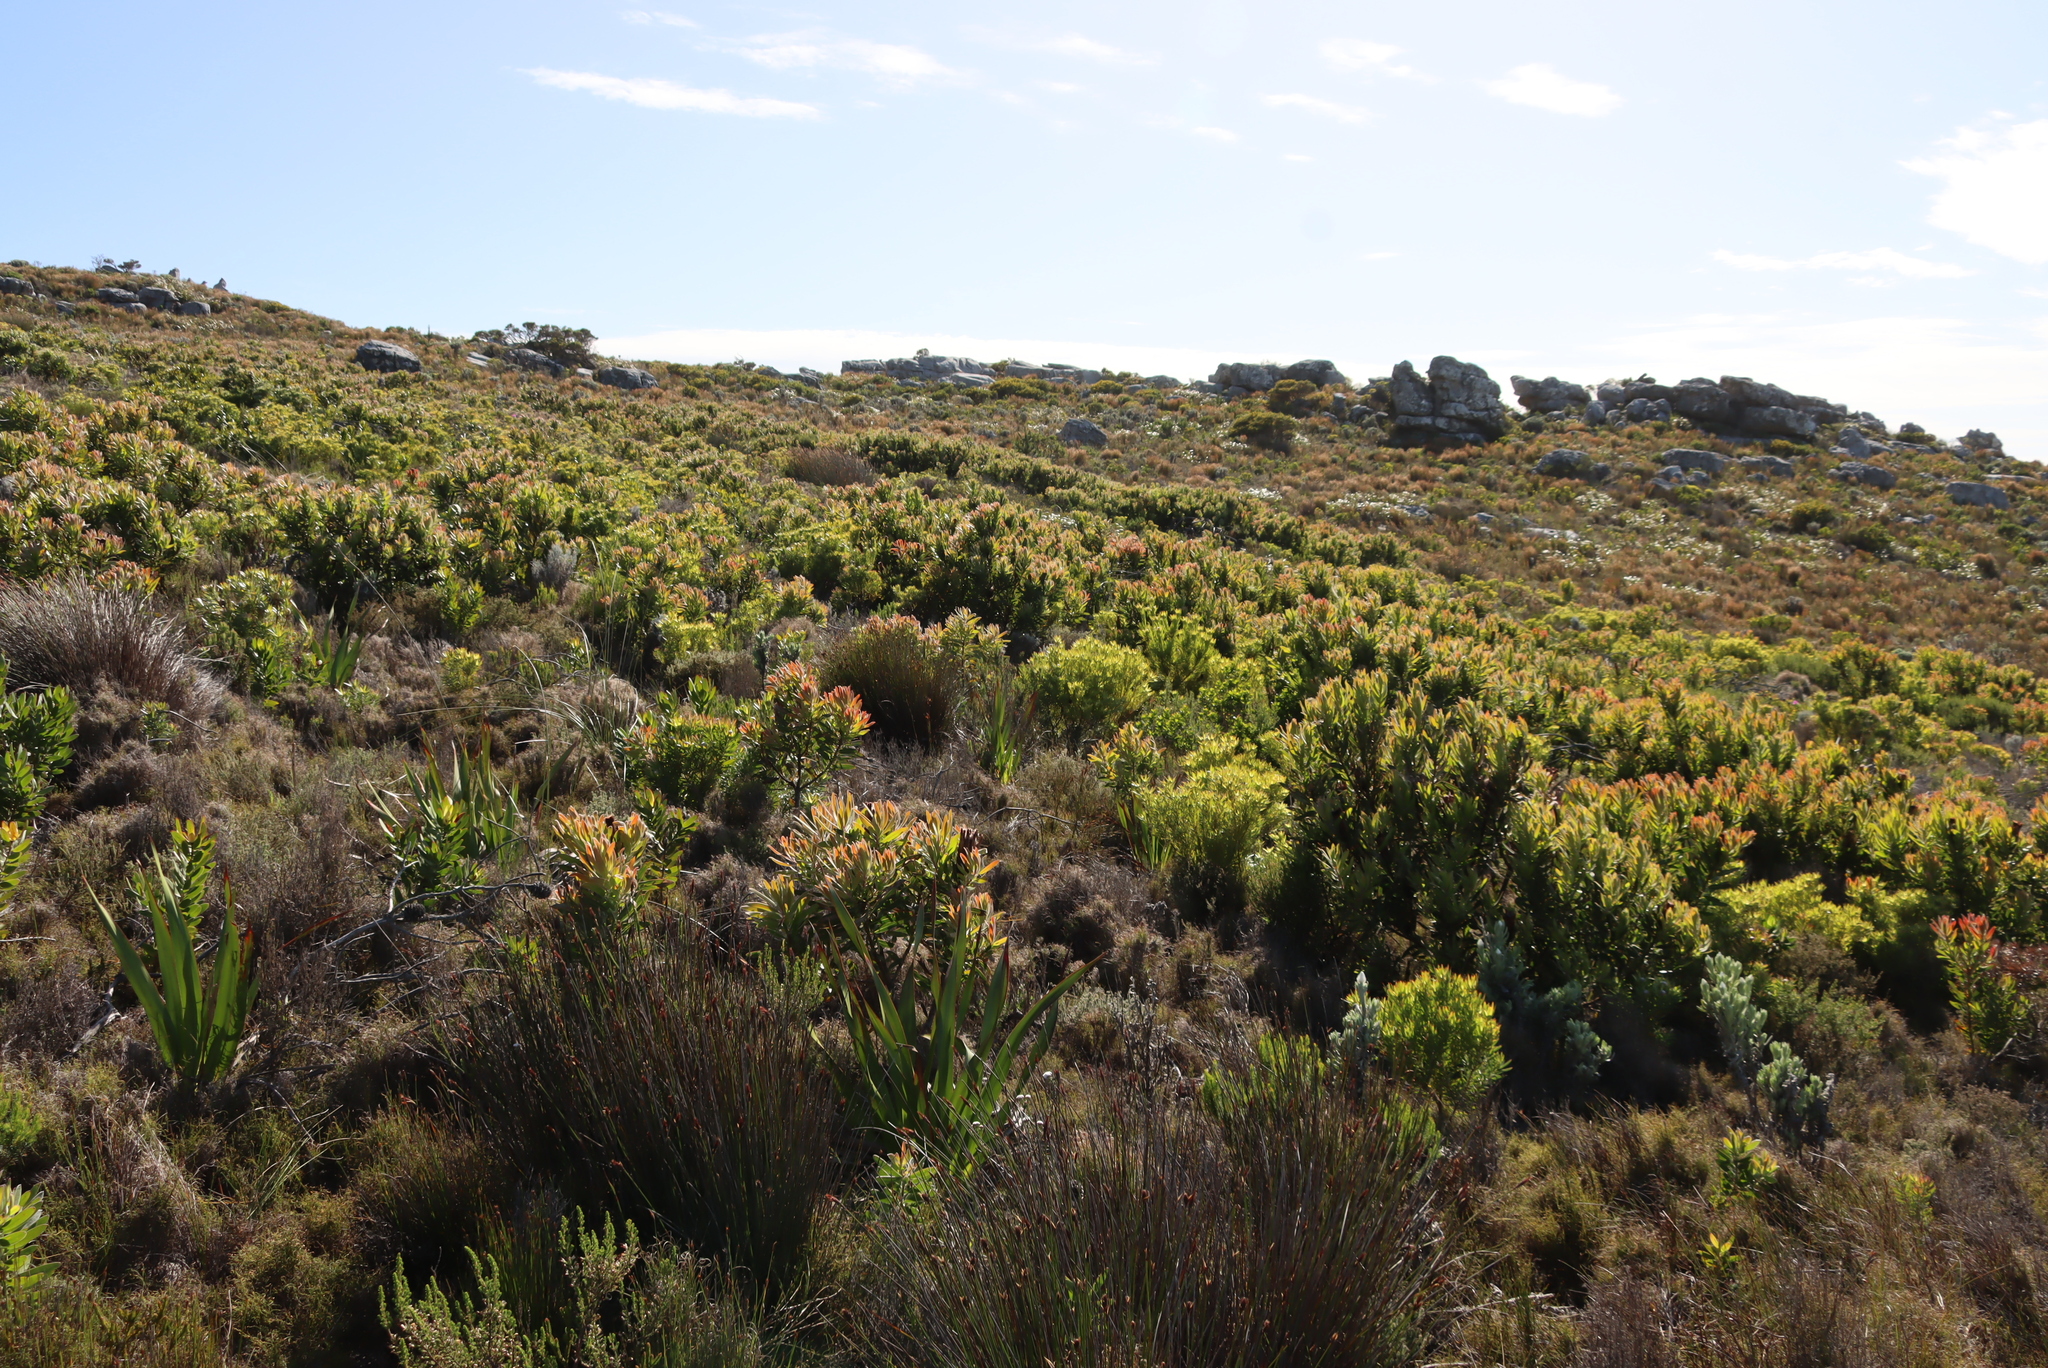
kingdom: Plantae
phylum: Tracheophyta
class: Magnoliopsida
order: Proteales
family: Proteaceae
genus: Protea
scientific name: Protea lepidocarpodendron
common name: Black-bearded protea
